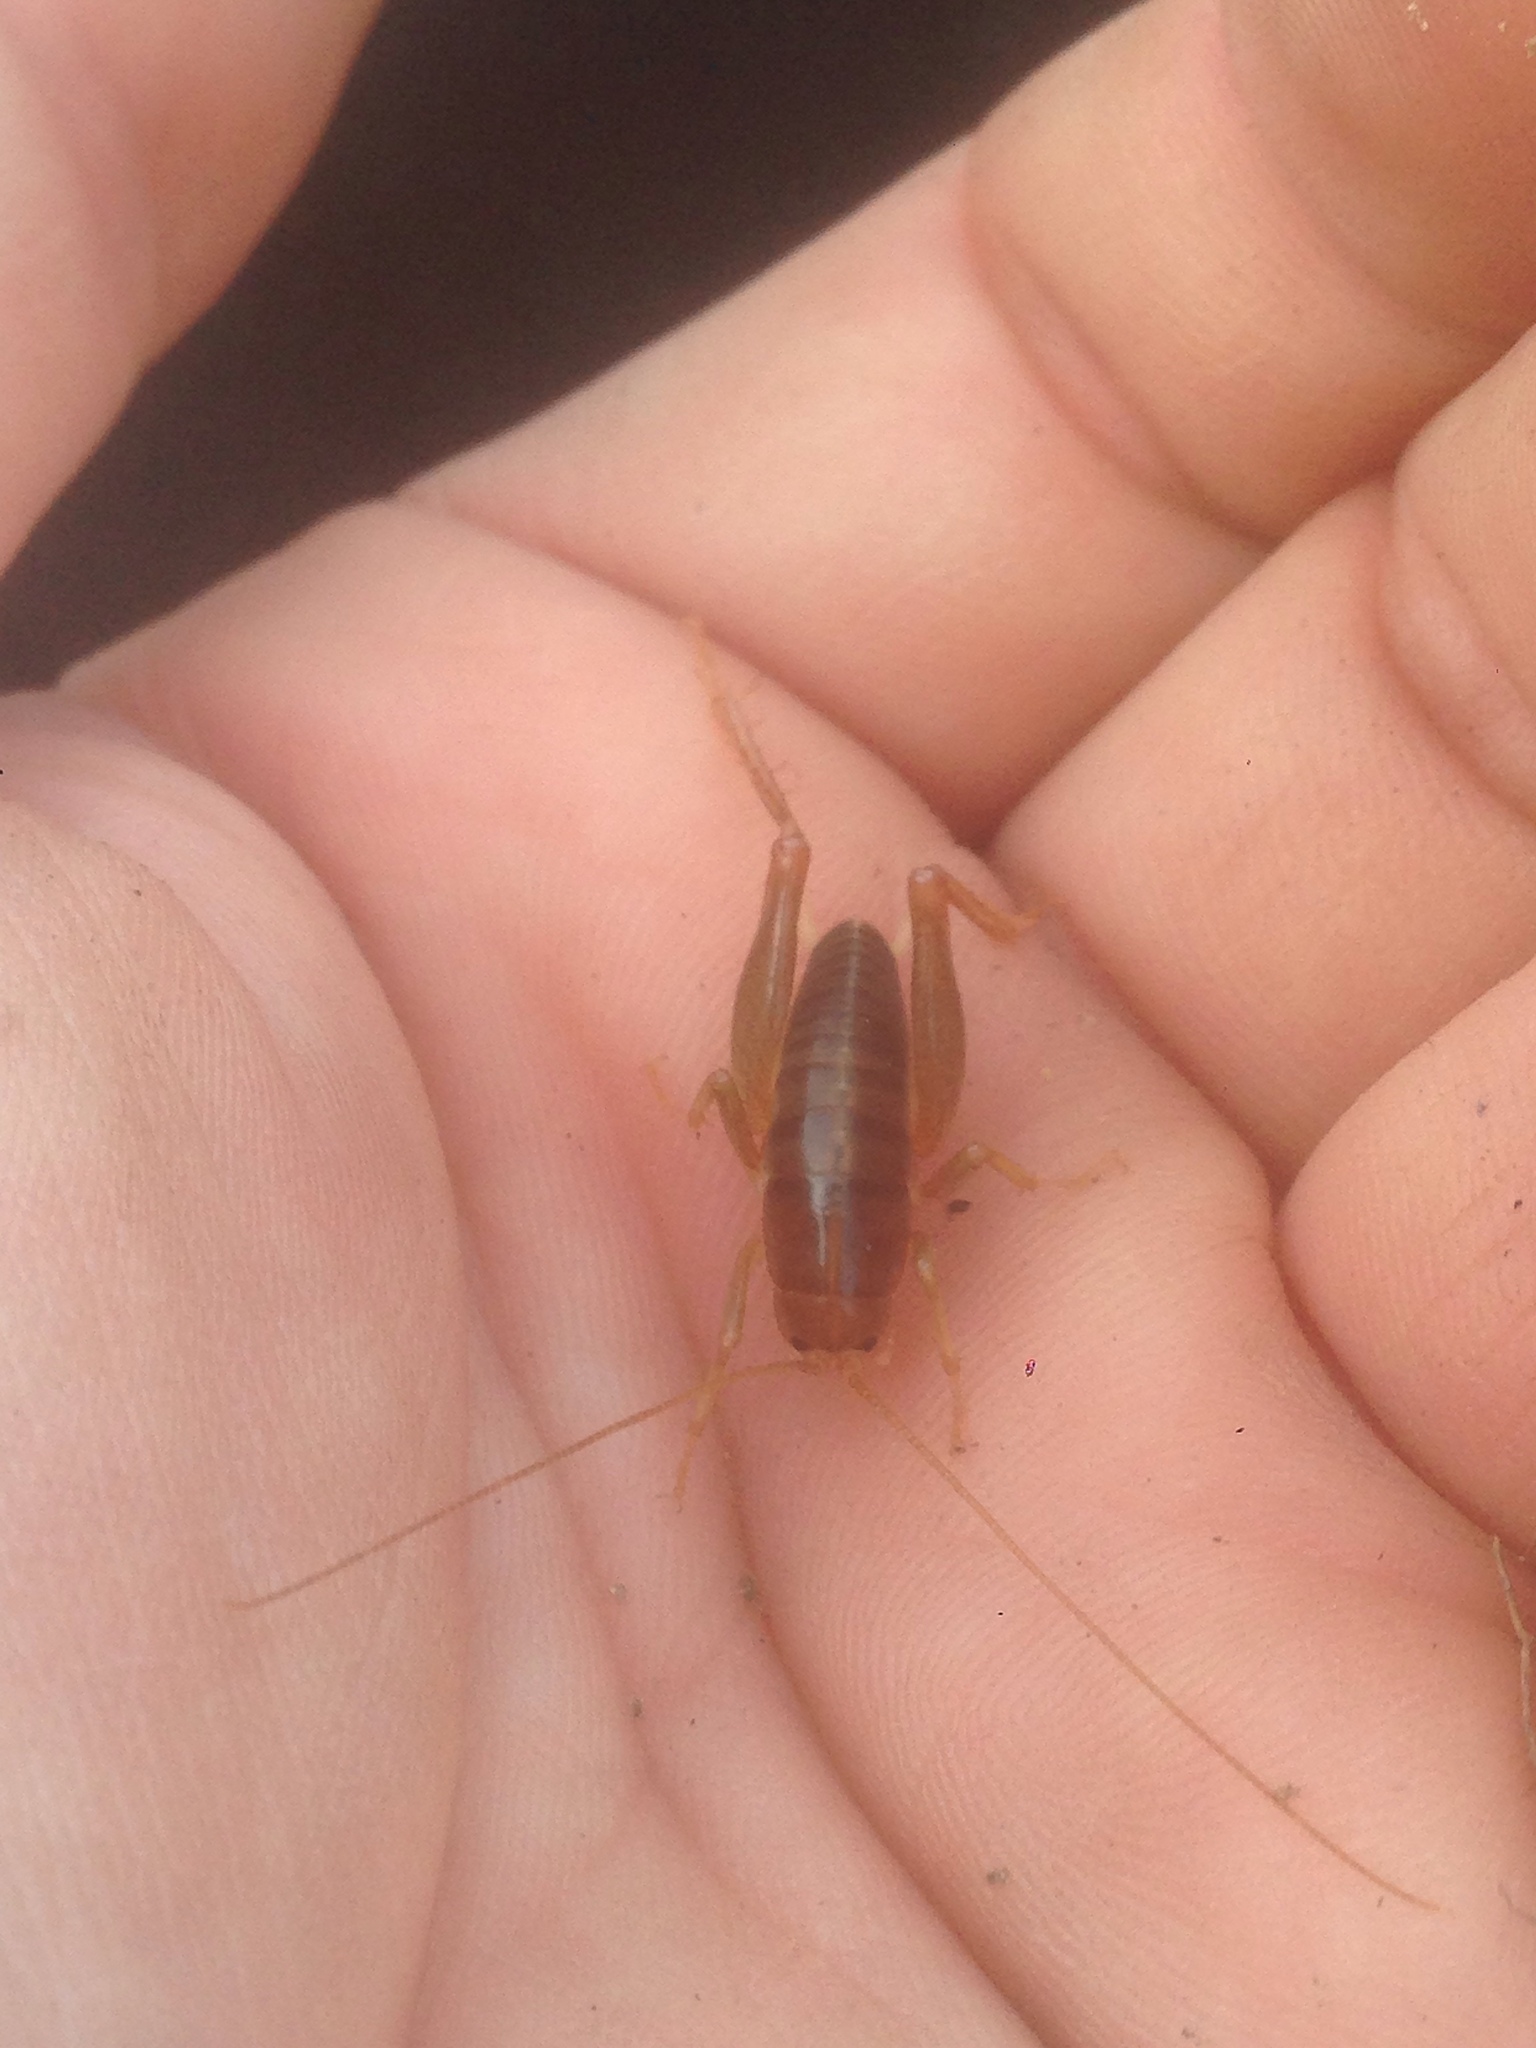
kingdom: Animalia
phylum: Arthropoda
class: Insecta
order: Orthoptera
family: Rhaphidophoridae
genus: Ceuthophilus
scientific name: Ceuthophilus californianus
